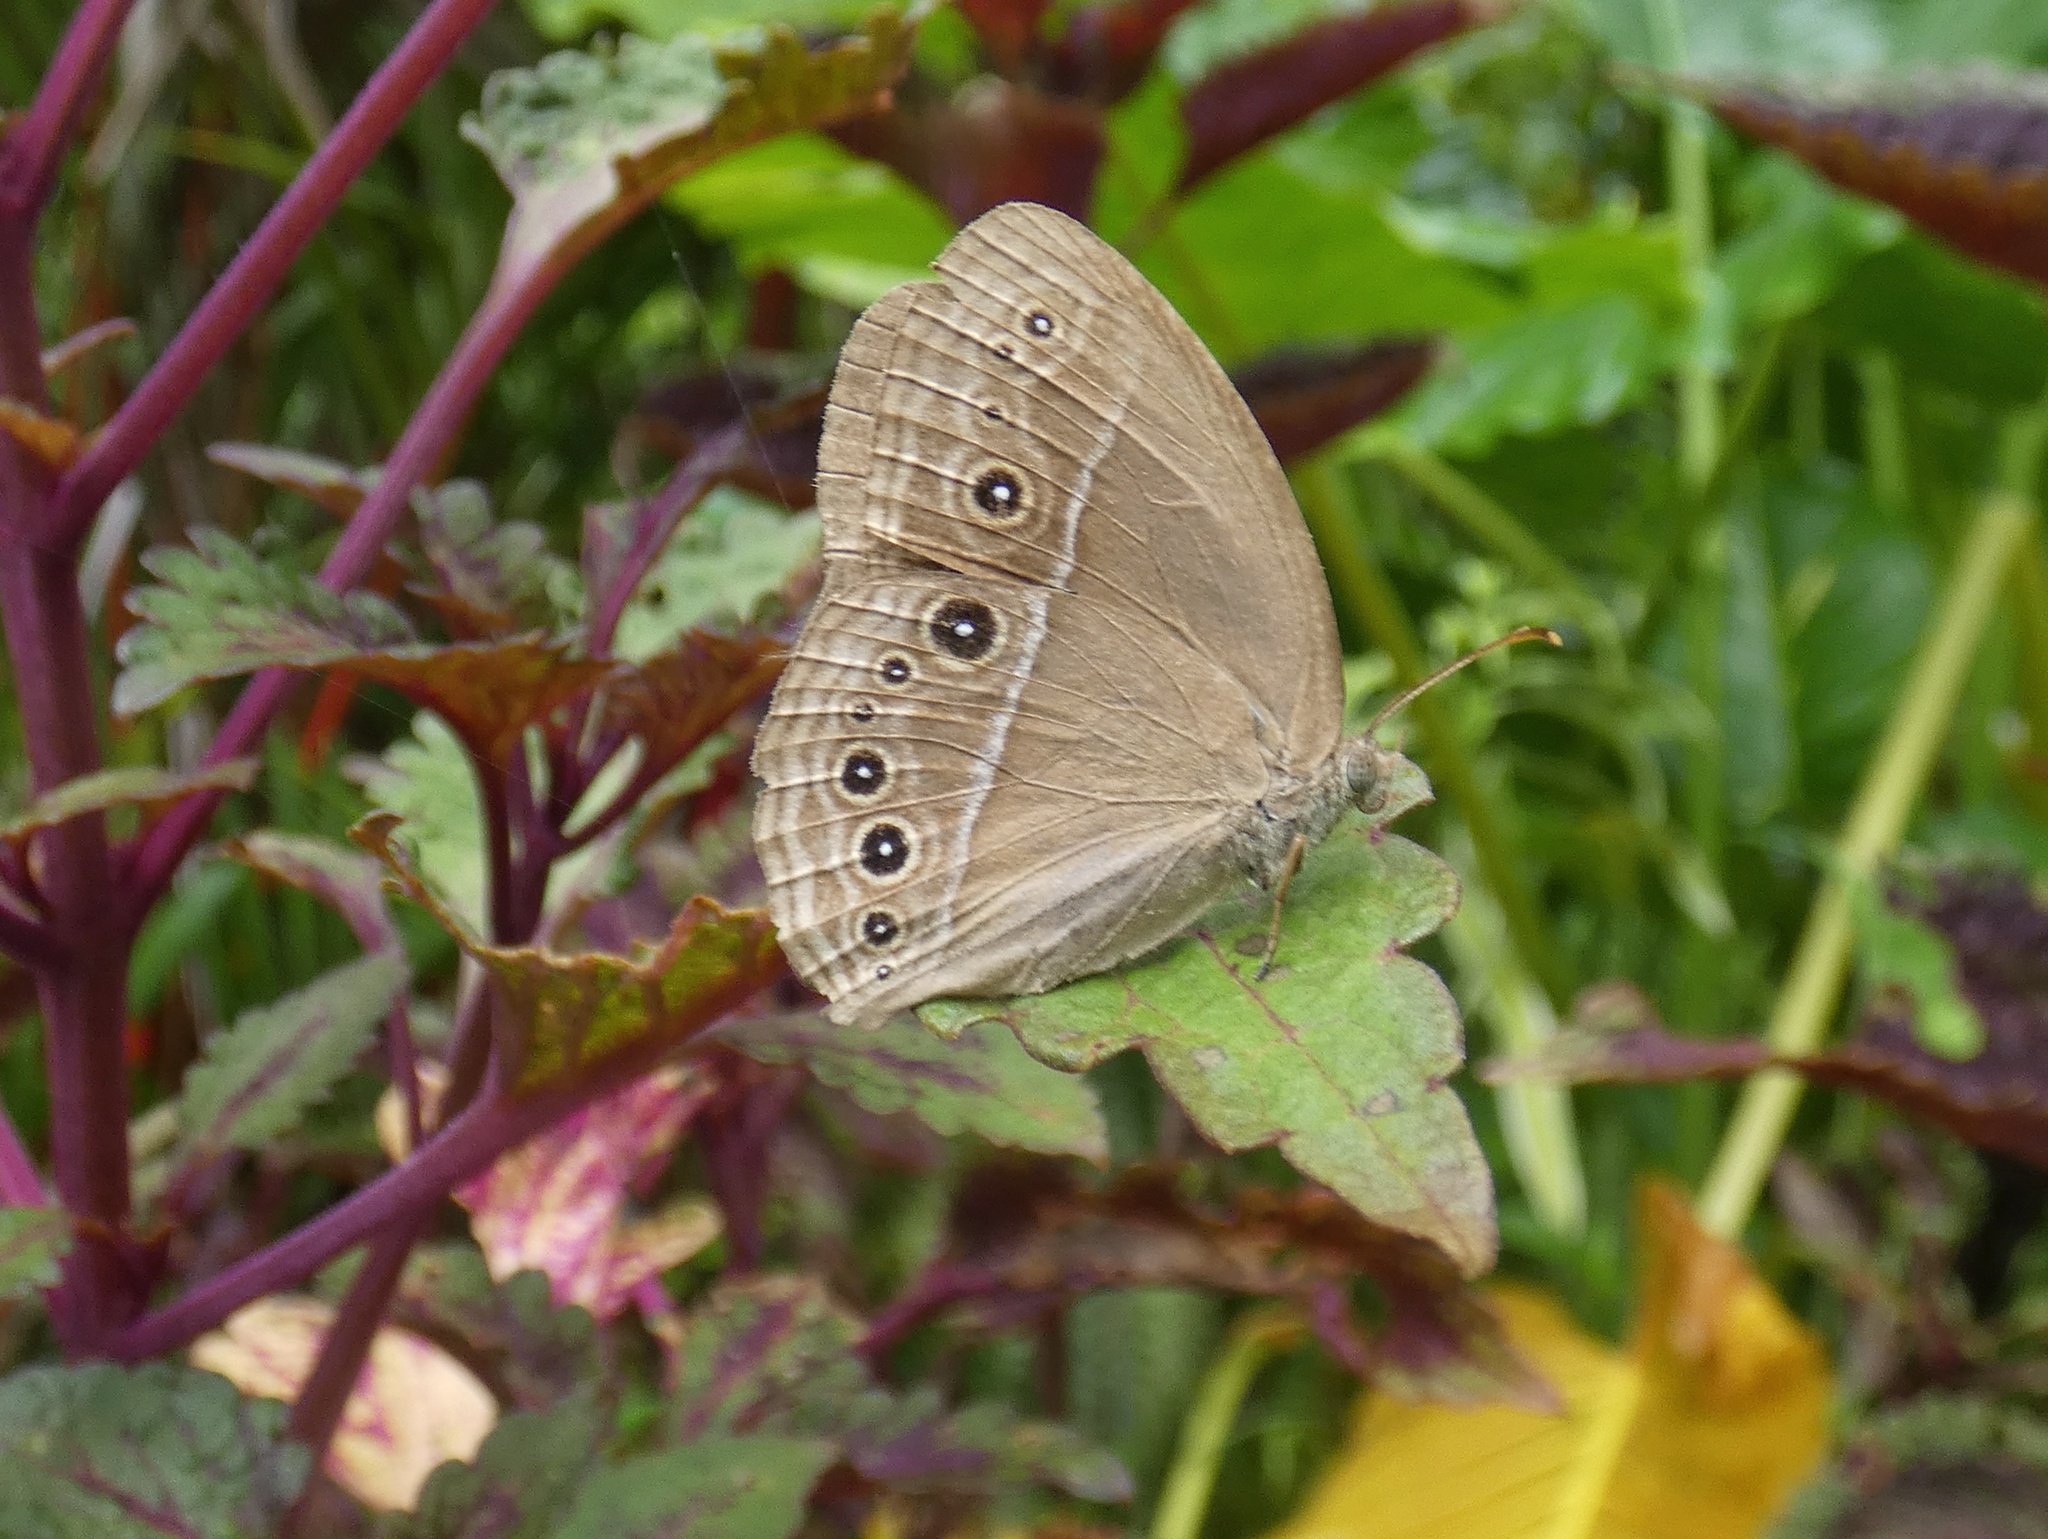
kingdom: Animalia
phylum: Arthropoda
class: Insecta
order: Lepidoptera
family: Nymphalidae
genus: Mycalesis
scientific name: Mycalesis perseus
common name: Dingy bushbrown
